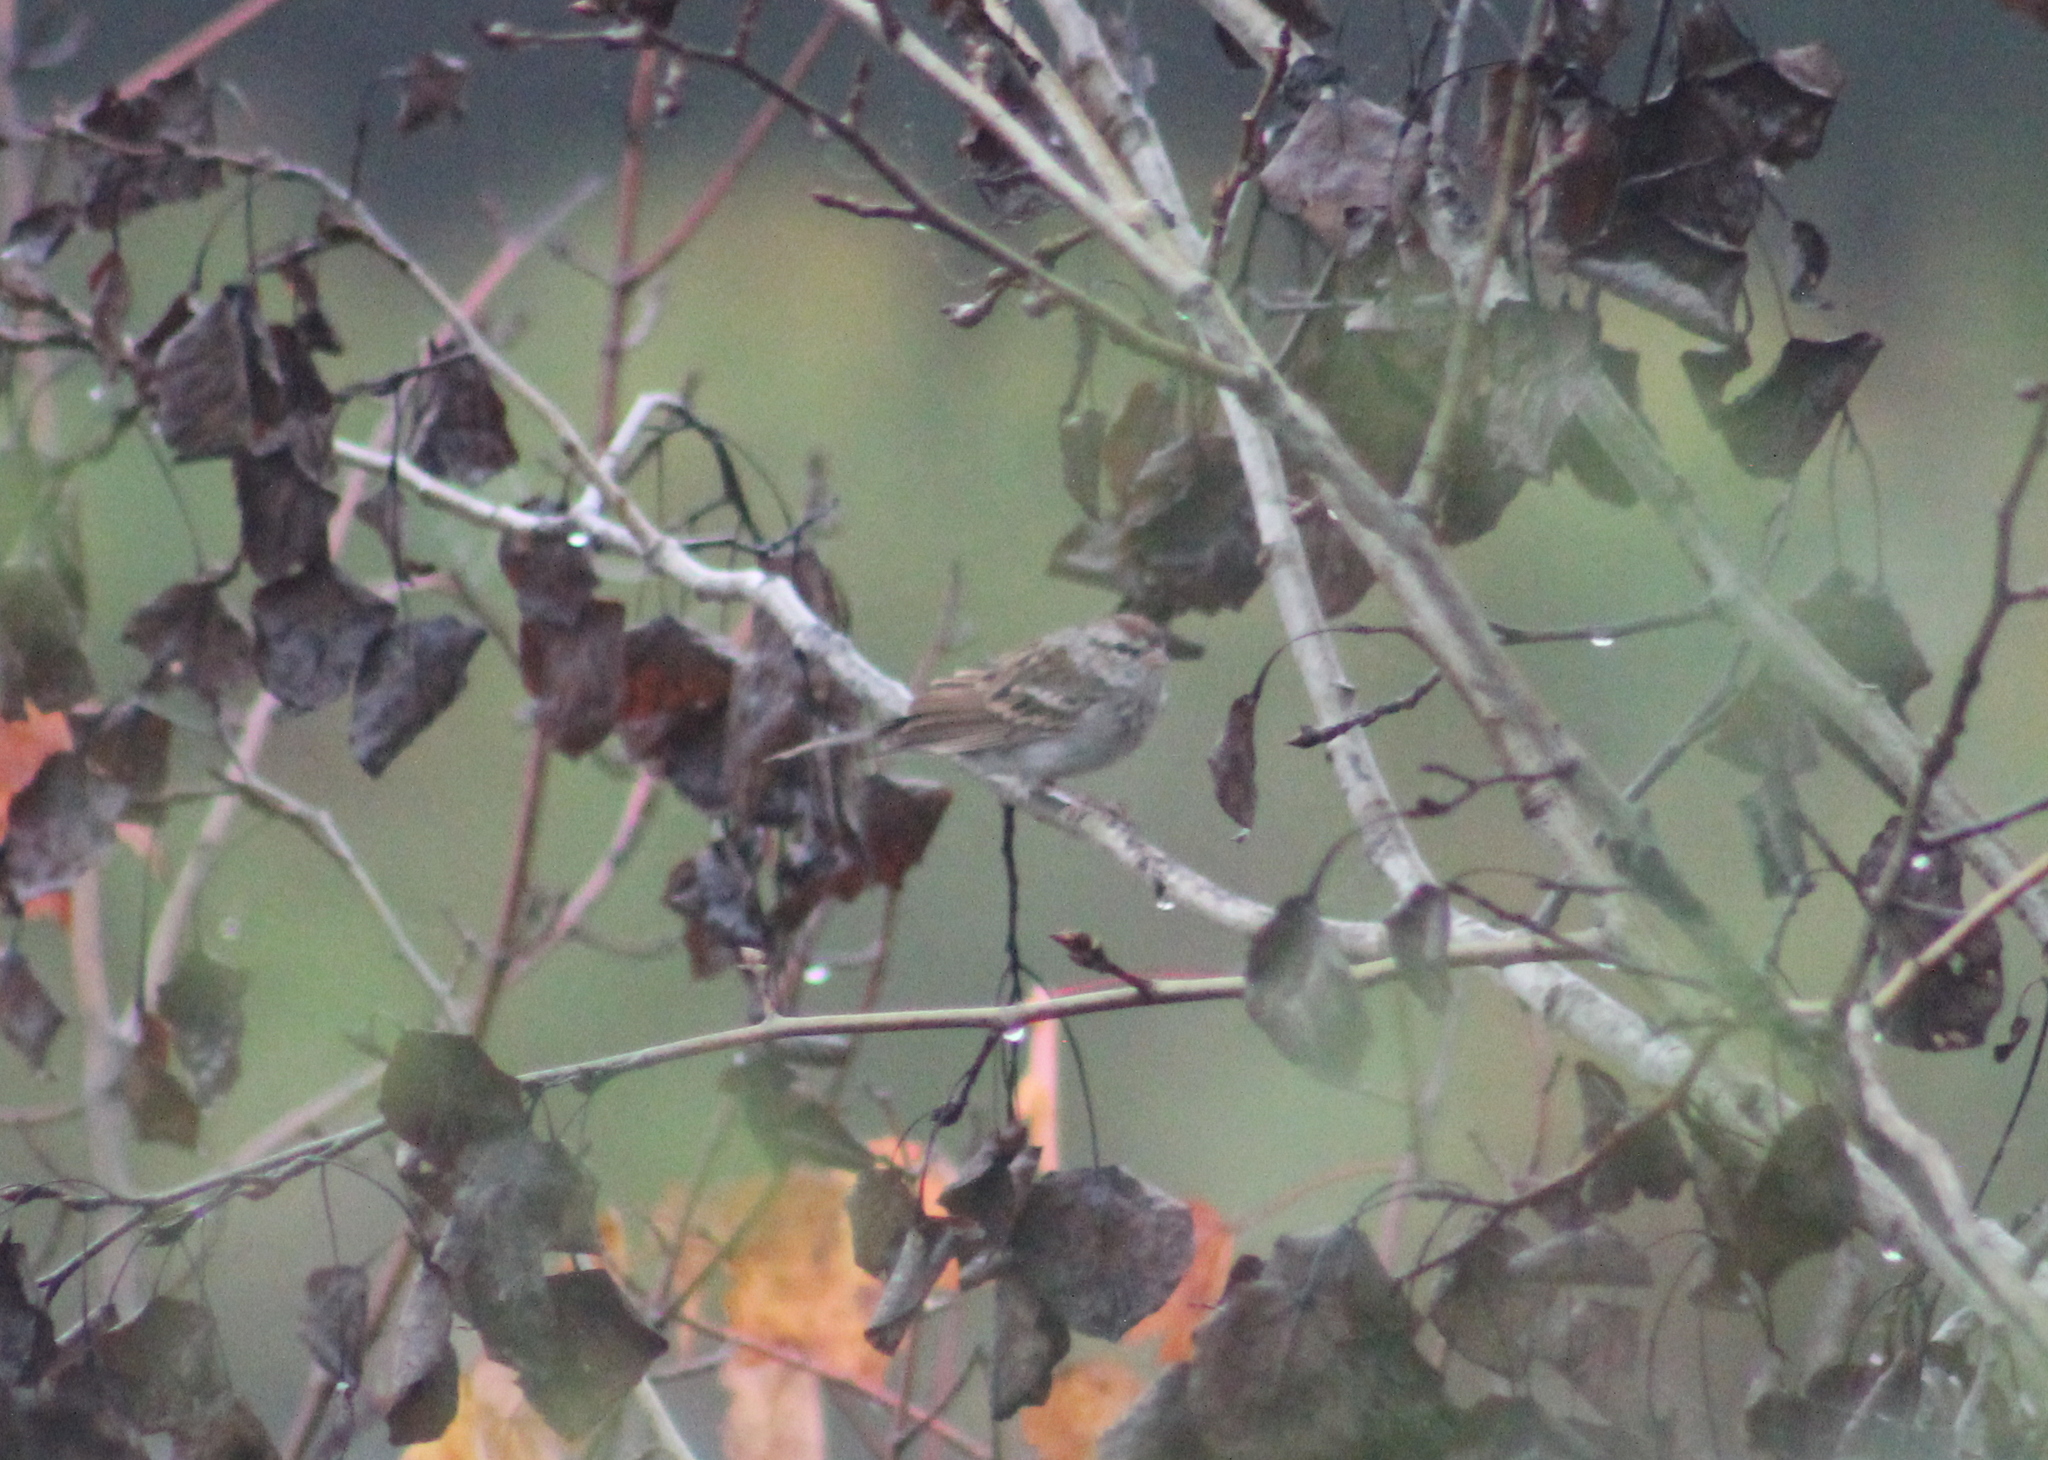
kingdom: Animalia
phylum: Chordata
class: Aves
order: Passeriformes
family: Passerellidae
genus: Spizella
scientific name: Spizella passerina
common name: Chipping sparrow
